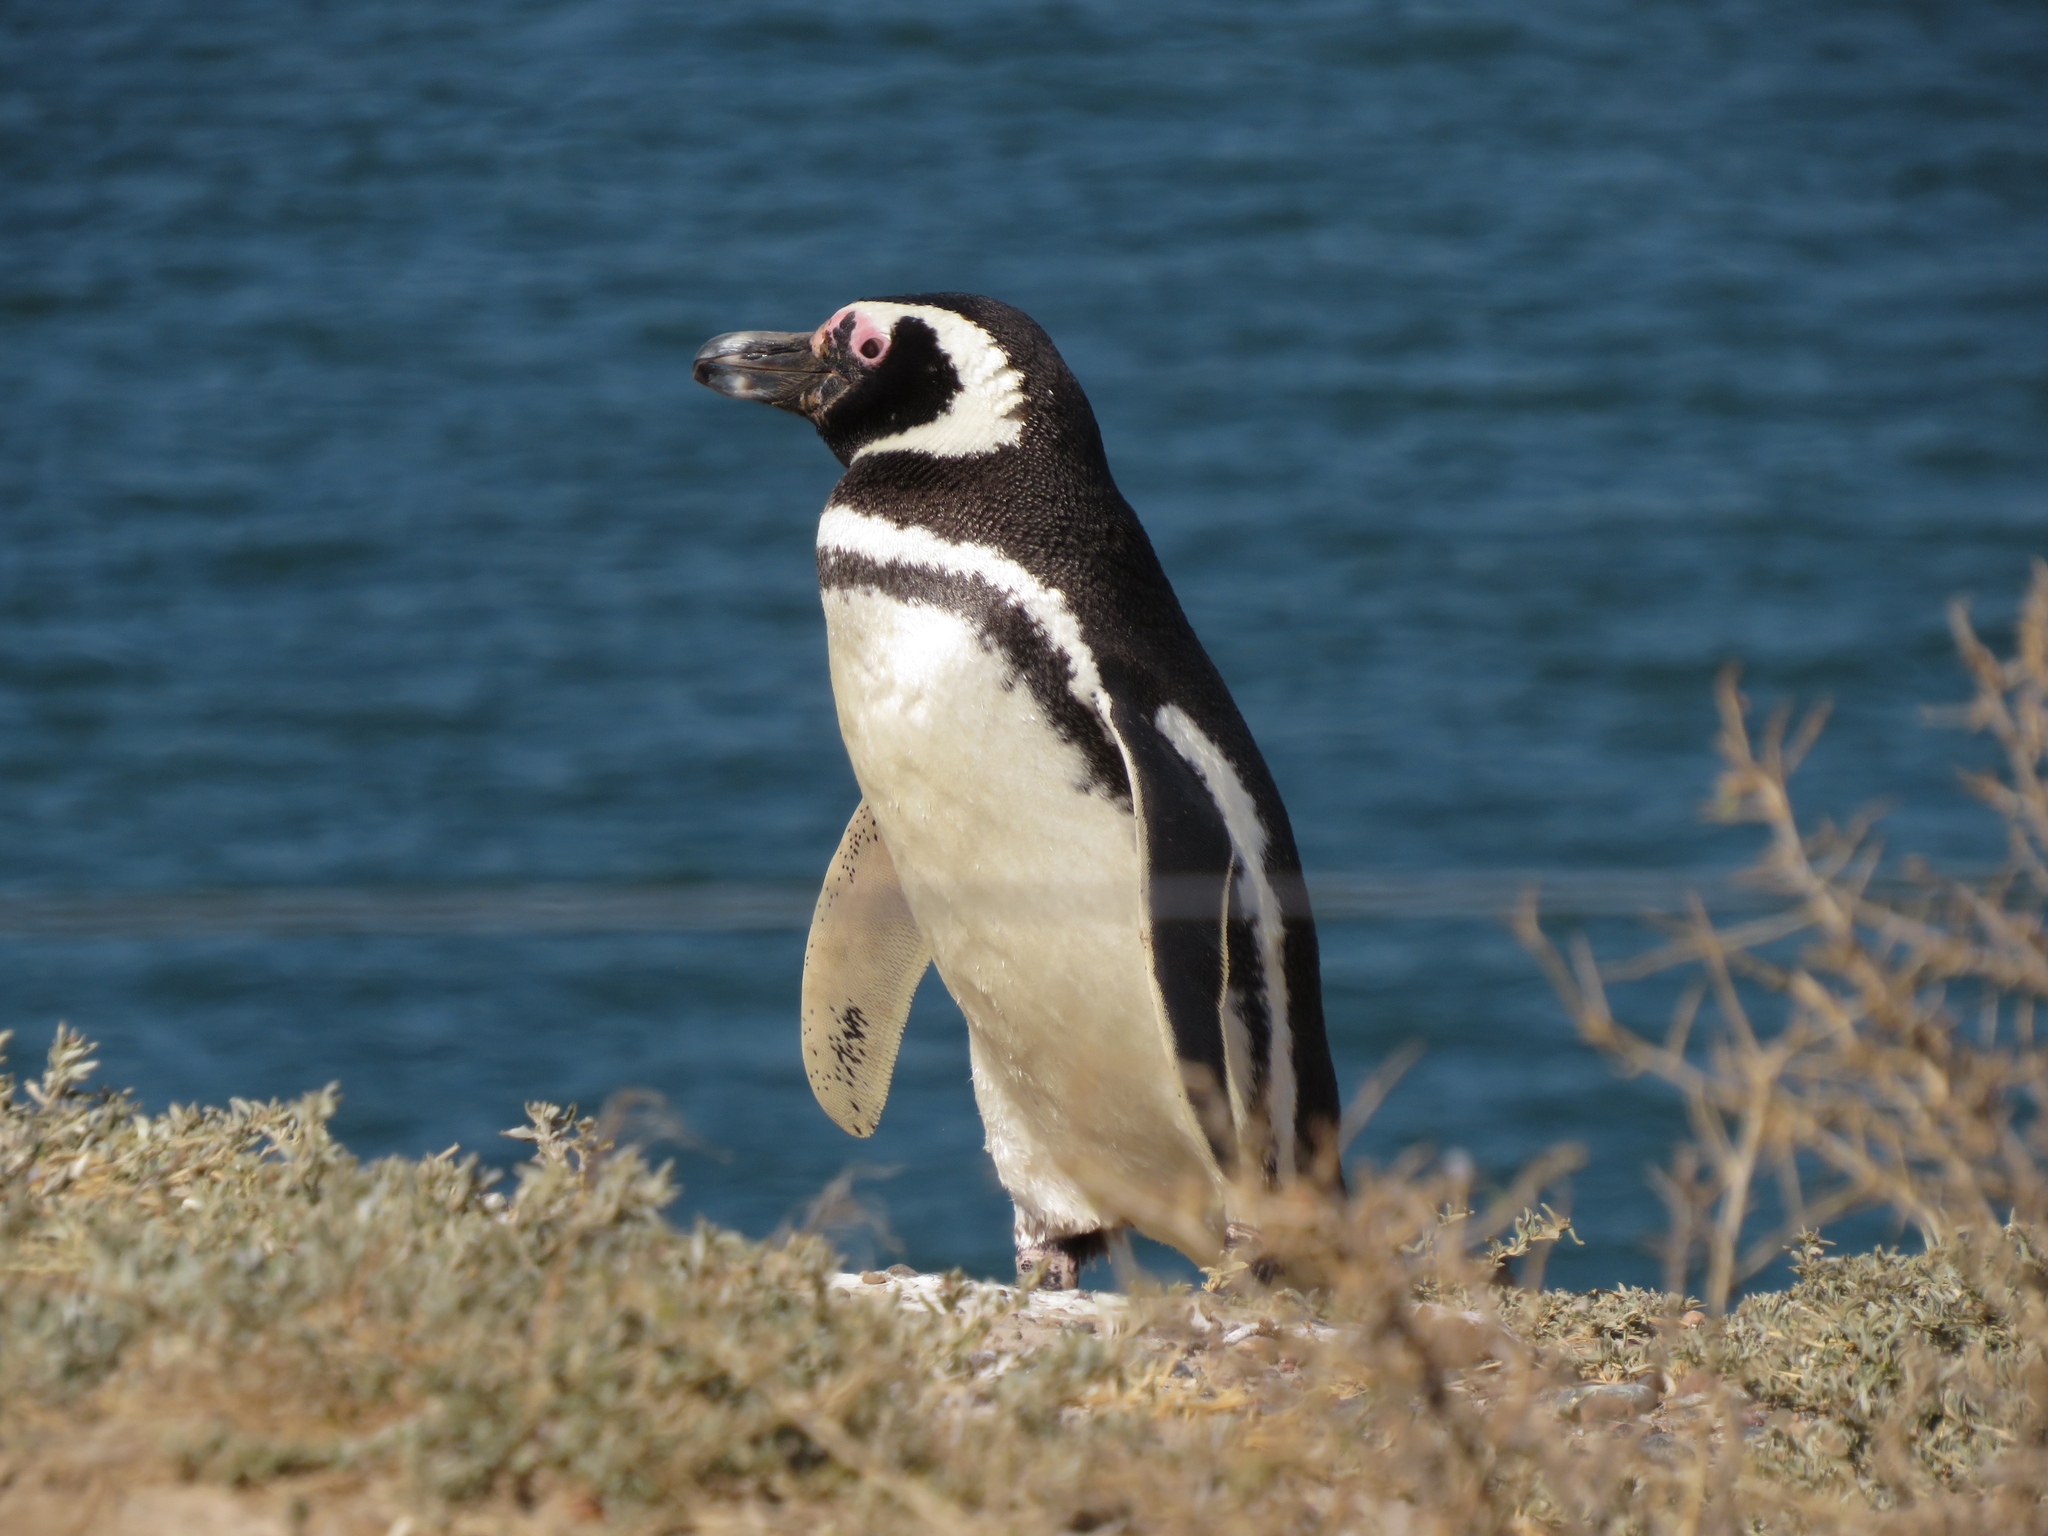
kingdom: Animalia
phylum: Chordata
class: Aves
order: Sphenisciformes
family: Spheniscidae
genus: Spheniscus
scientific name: Spheniscus magellanicus
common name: Magellanic penguin
